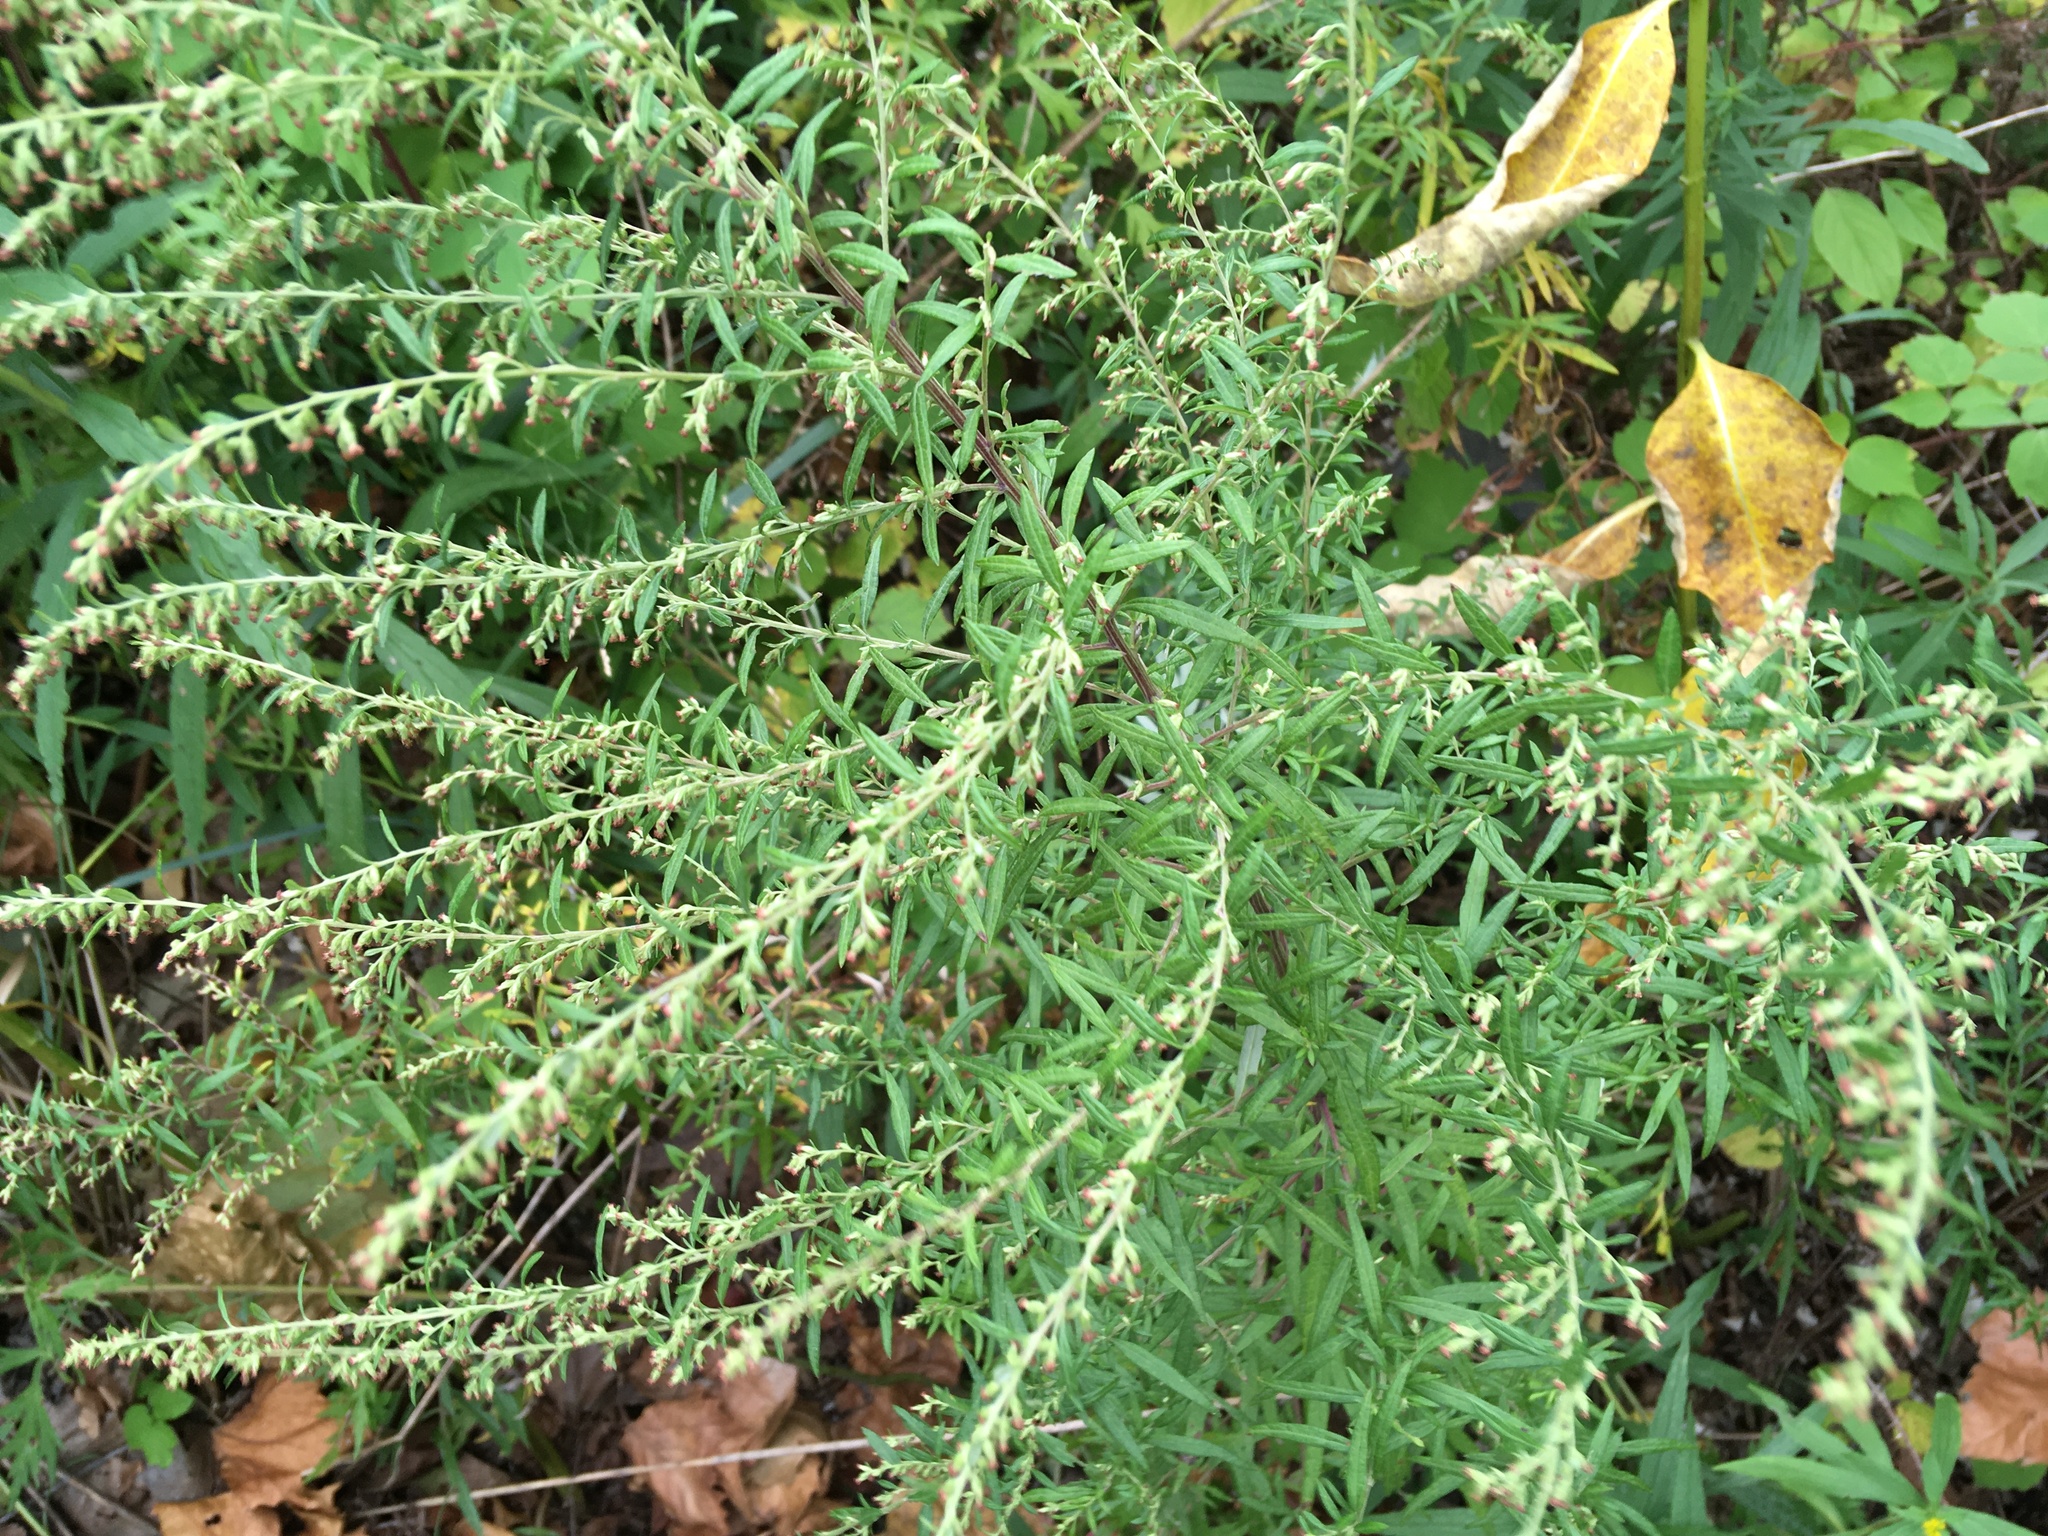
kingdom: Plantae
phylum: Tracheophyta
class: Magnoliopsida
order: Asterales
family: Asteraceae
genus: Artemisia
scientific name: Artemisia vulgaris
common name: Mugwort
